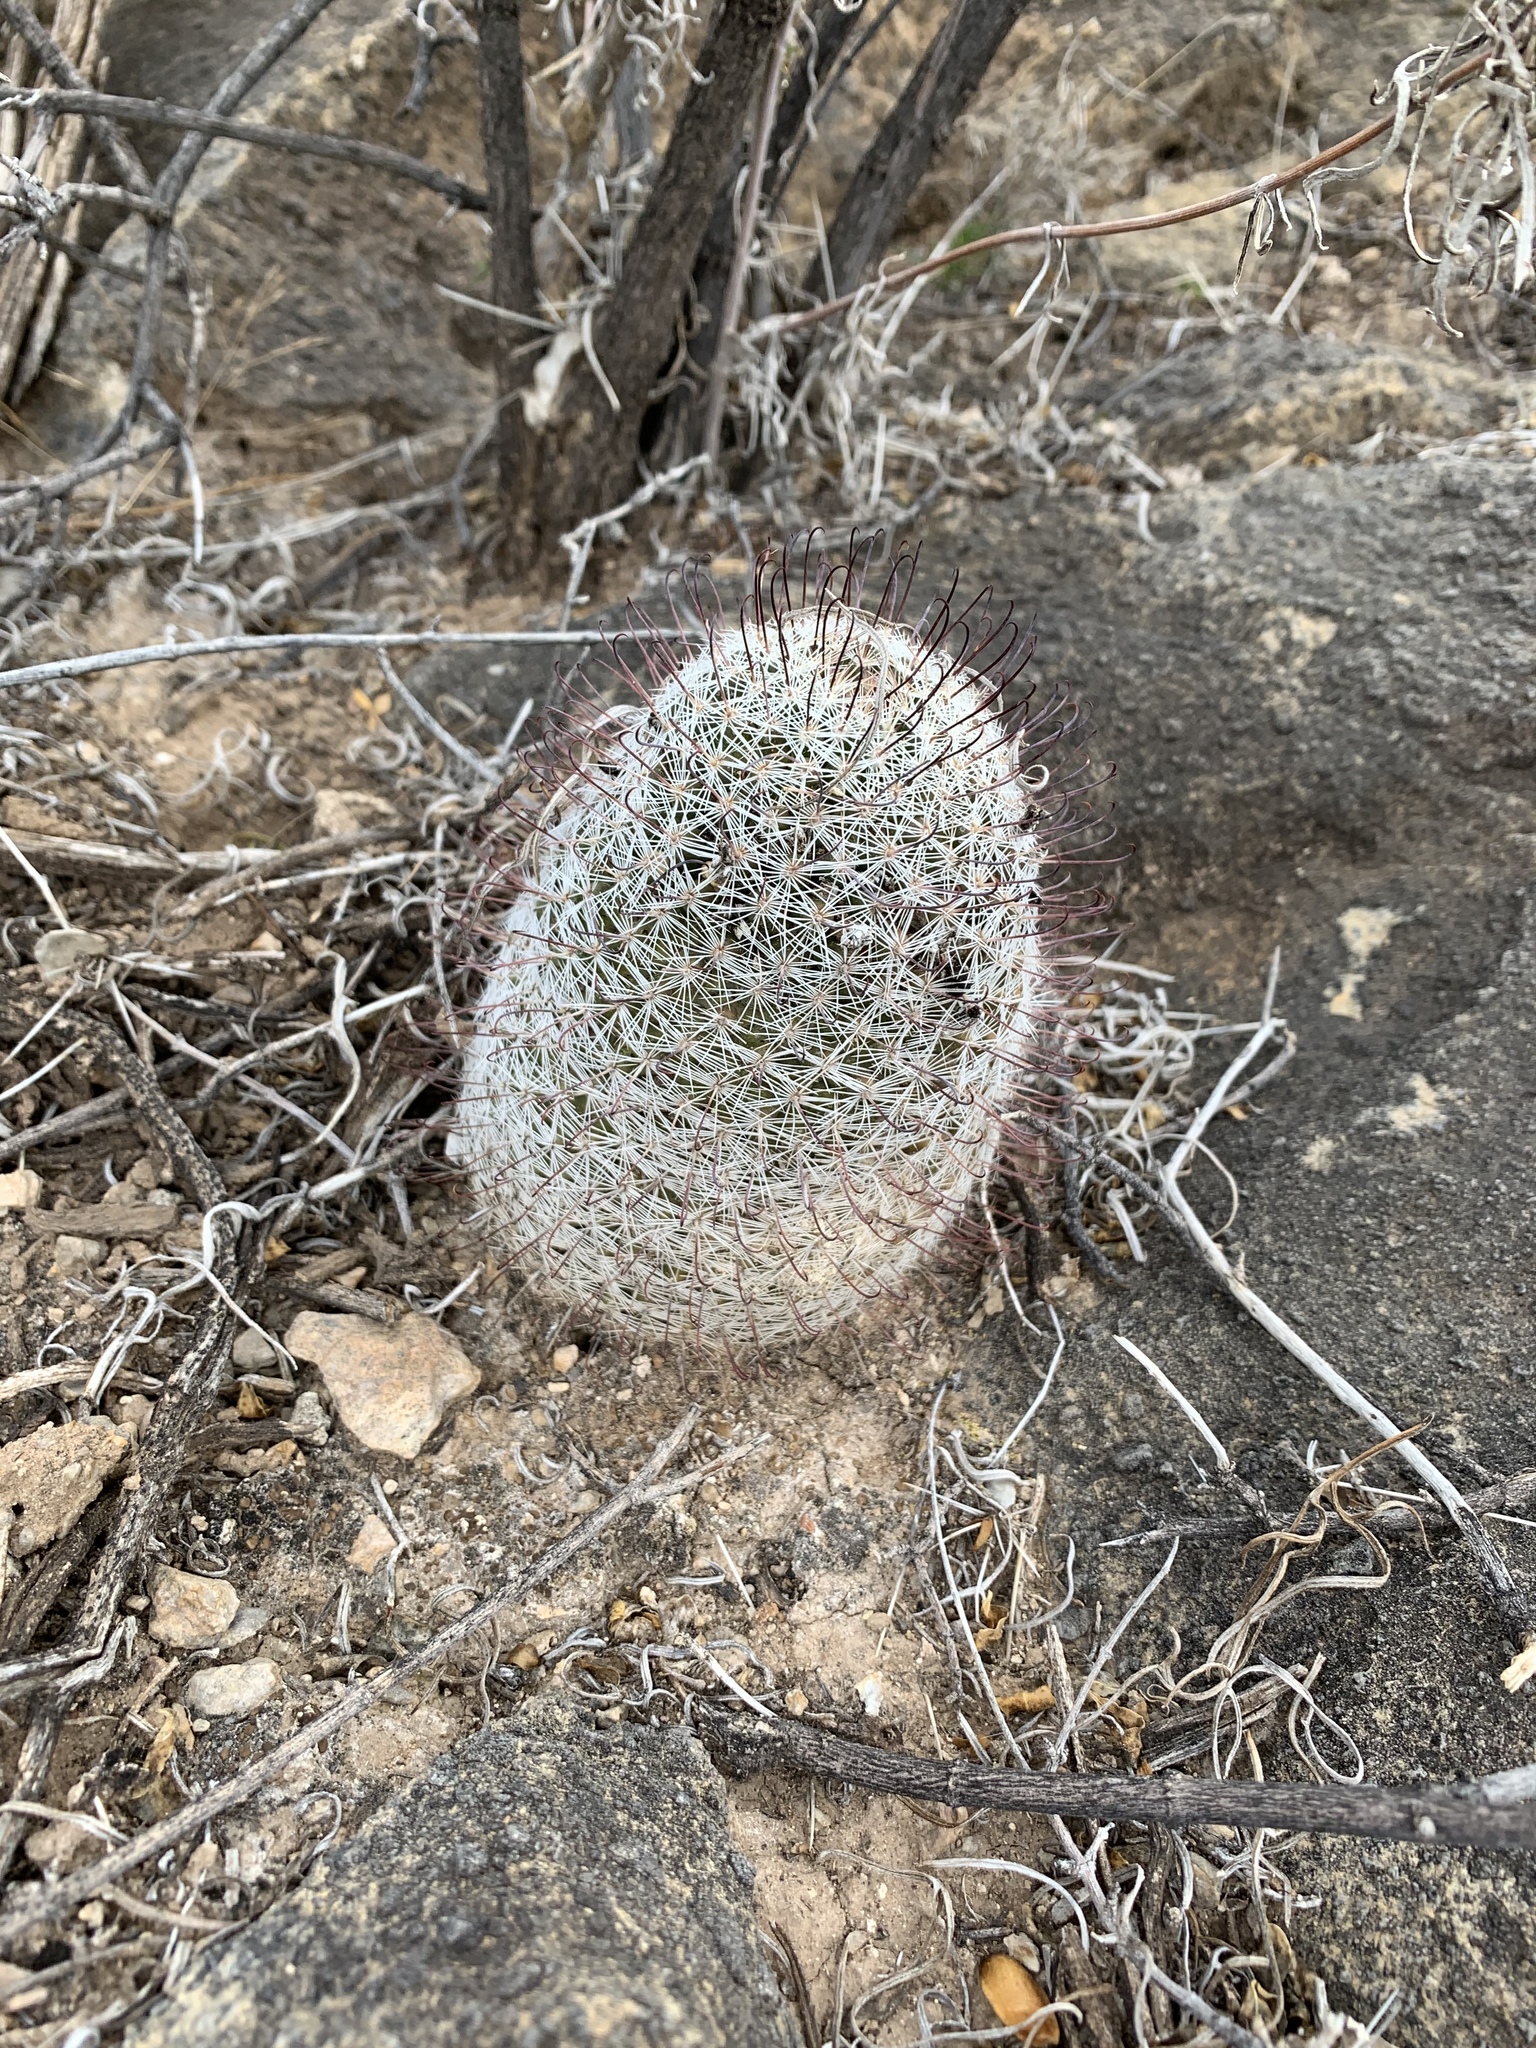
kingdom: Plantae
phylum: Tracheophyta
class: Magnoliopsida
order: Caryophyllales
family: Cactaceae
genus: Cochemiea
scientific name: Cochemiea grahamii
